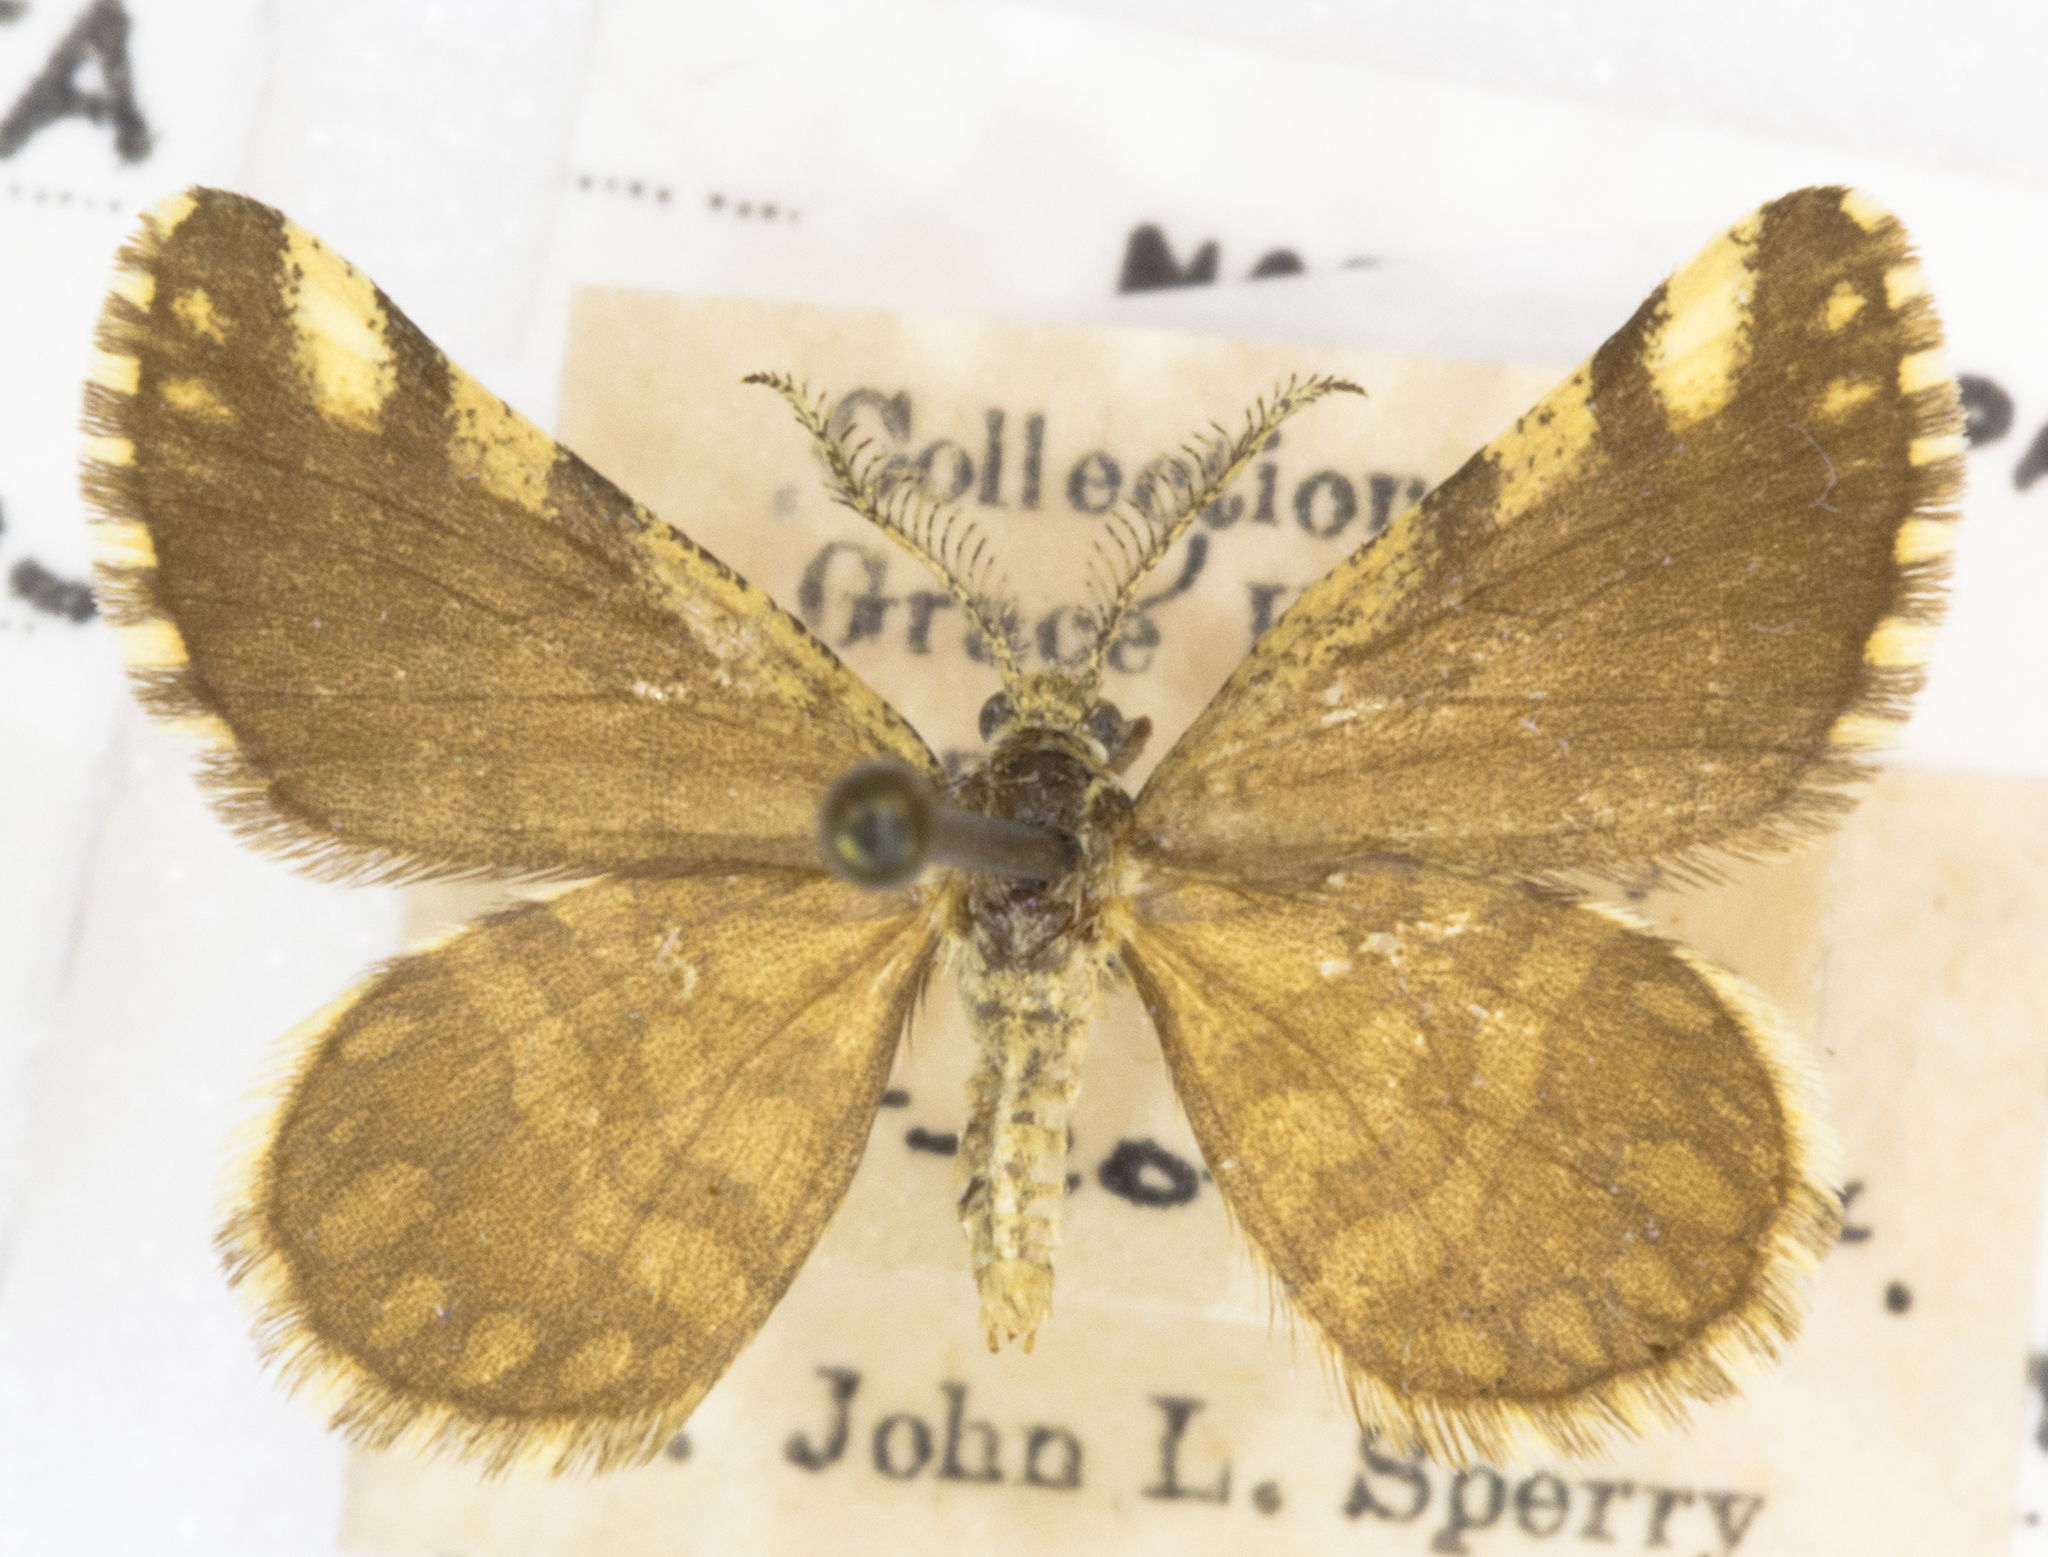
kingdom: Animalia
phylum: Arthropoda
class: Insecta
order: Lepidoptera
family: Geometridae
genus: Narraga
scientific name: Narraga fimetaria
